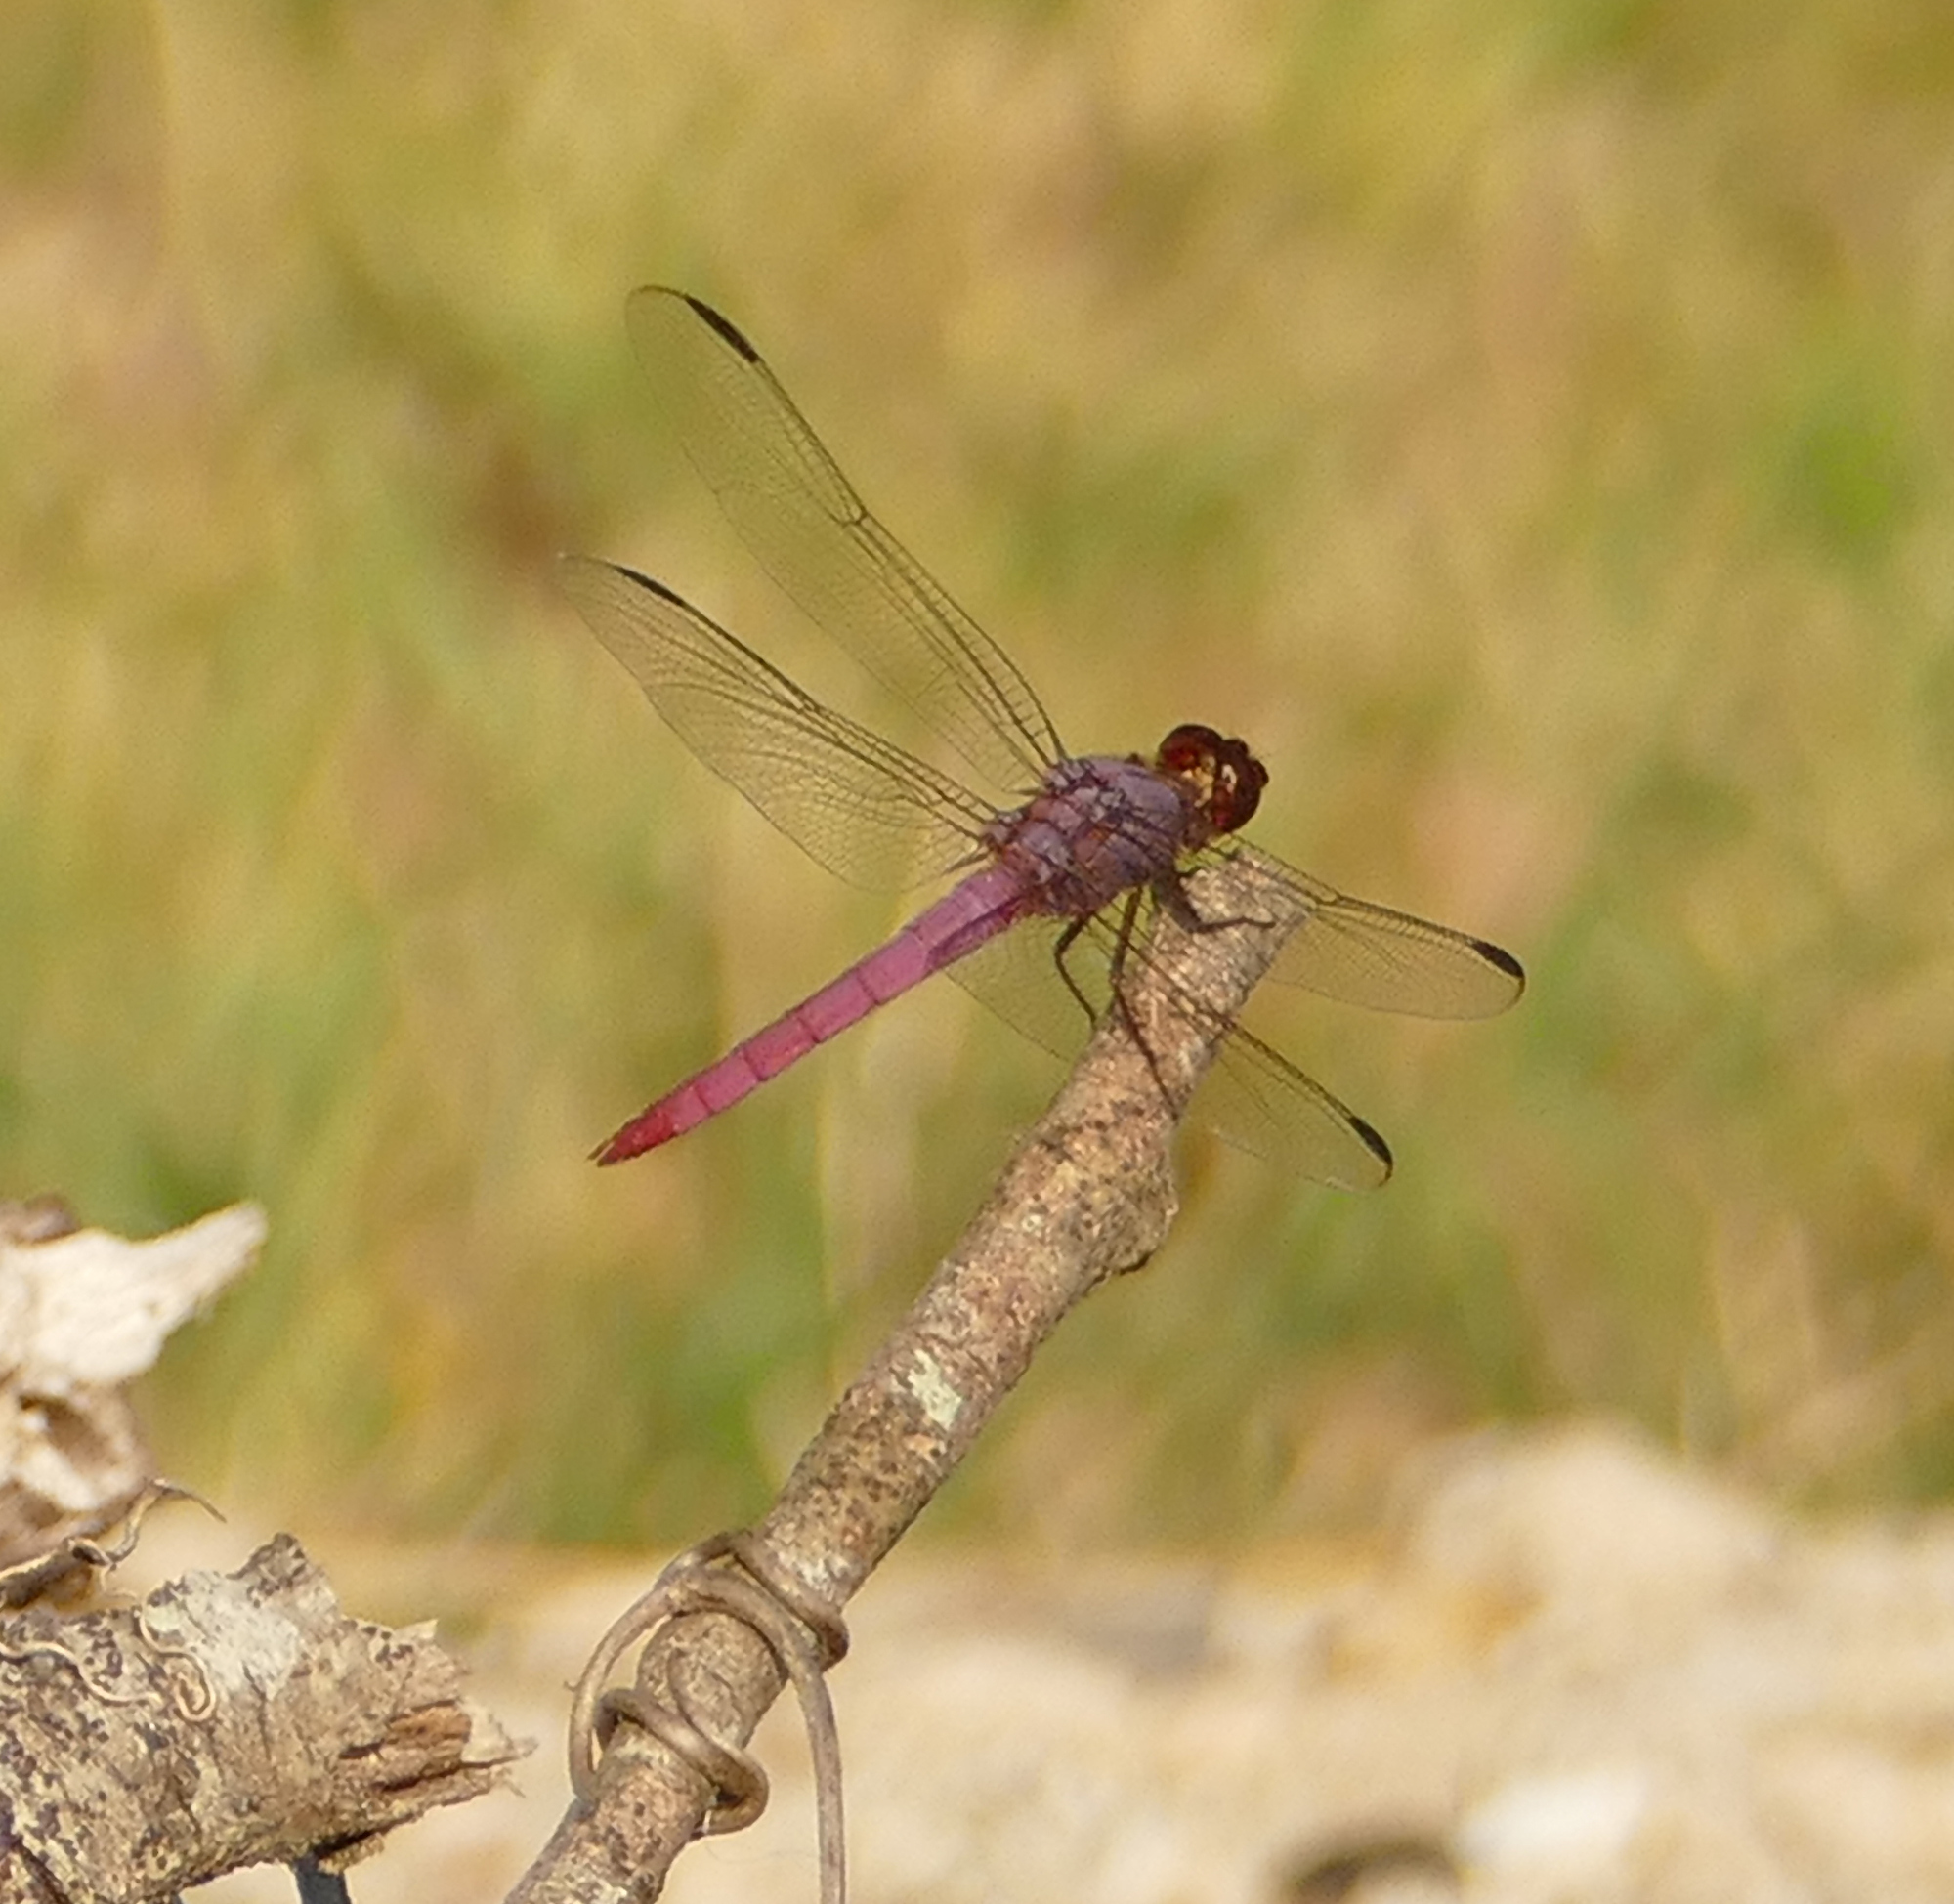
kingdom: Animalia
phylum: Arthropoda
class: Insecta
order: Odonata
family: Libellulidae
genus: Orthemis
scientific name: Orthemis ferruginea
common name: Roseate skimmer
